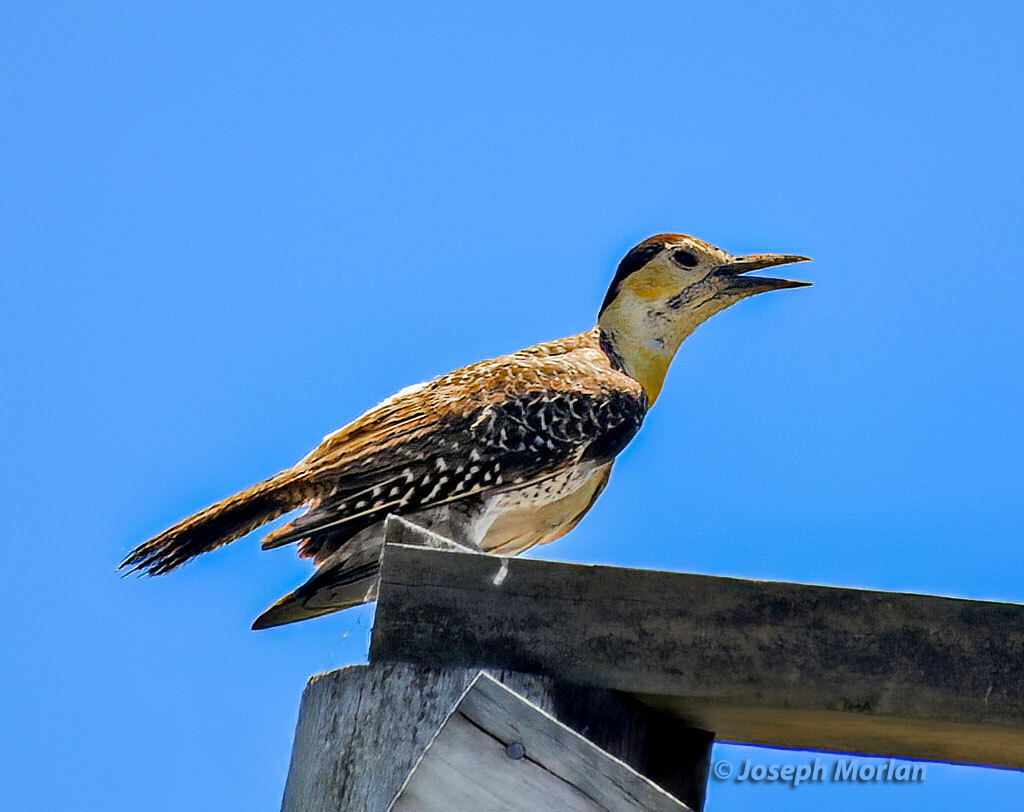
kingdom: Animalia
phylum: Chordata
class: Aves
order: Piciformes
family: Picidae
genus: Colaptes
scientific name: Colaptes campestris
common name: Campo flicker
